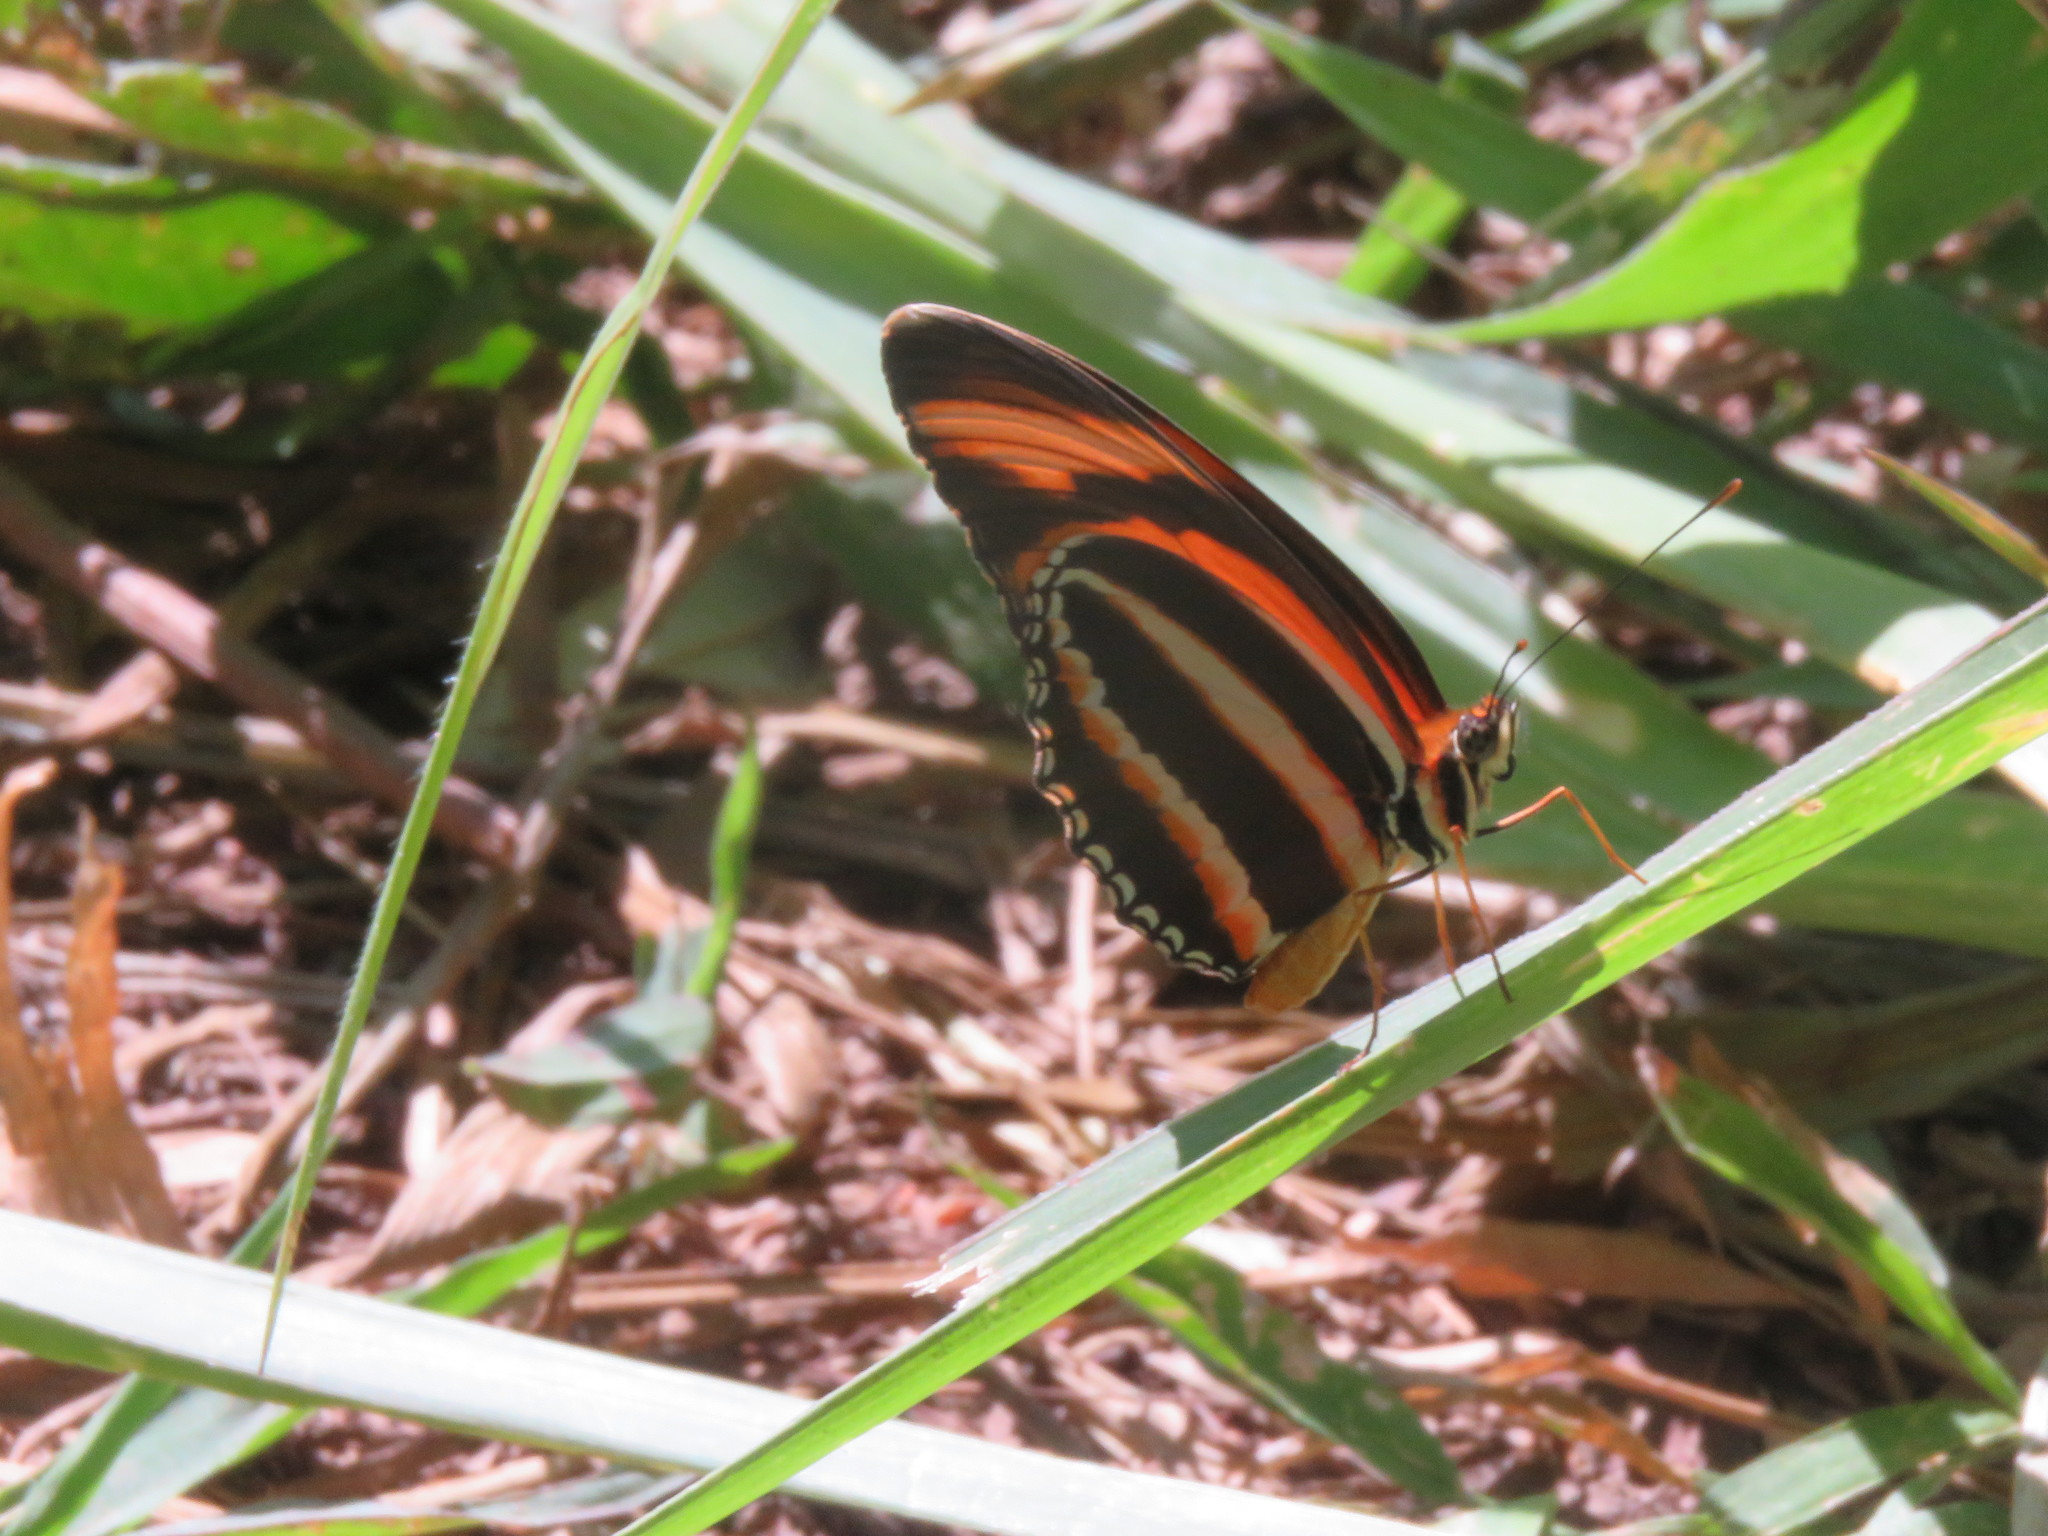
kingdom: Animalia
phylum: Arthropoda
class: Insecta
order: Lepidoptera
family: Nymphalidae
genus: Dryadula
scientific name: Dryadula phaetusa
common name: Banded orange heliconian
